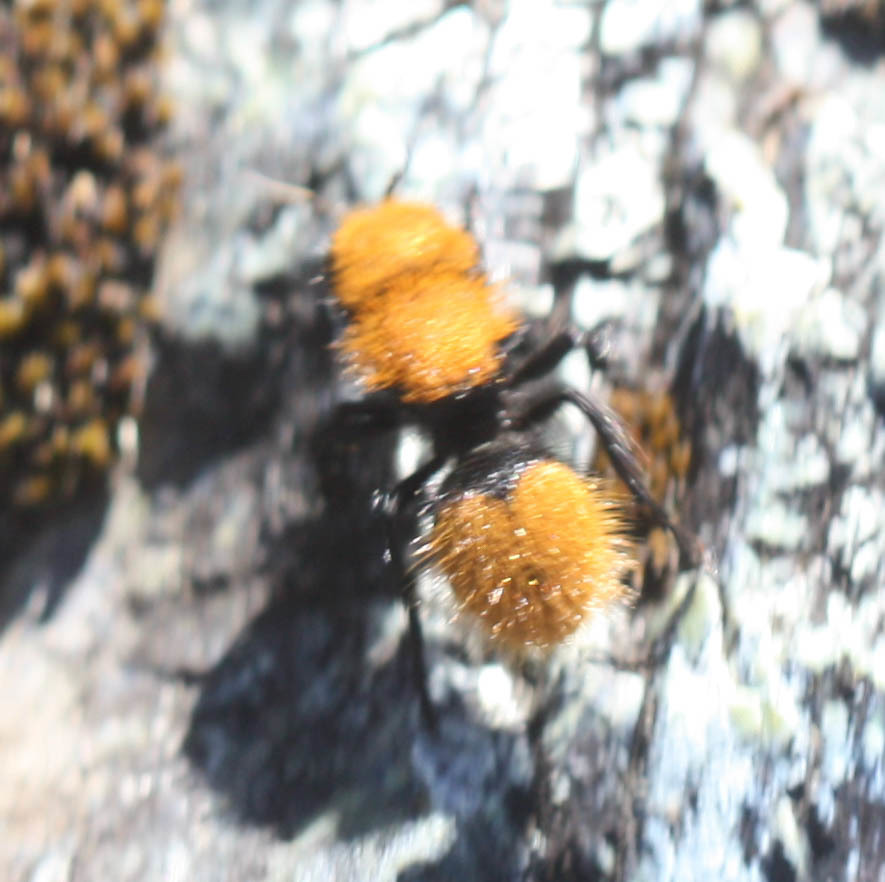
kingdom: Animalia
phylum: Arthropoda
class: Insecta
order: Hymenoptera
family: Mutillidae
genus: Dasymutilla
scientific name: Dasymutilla
